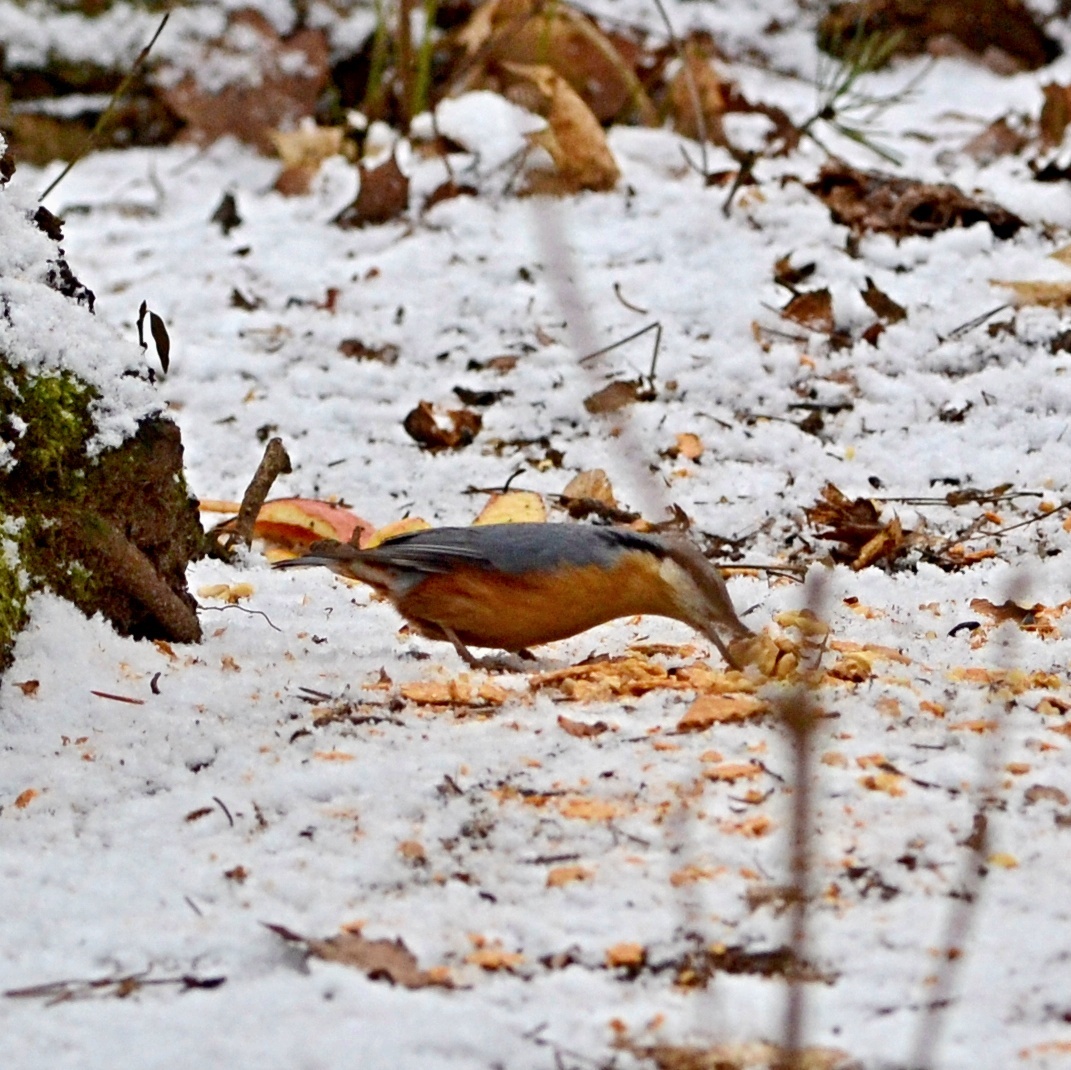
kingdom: Animalia
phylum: Chordata
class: Aves
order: Passeriformes
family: Sittidae
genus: Sitta
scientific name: Sitta europaea
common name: Eurasian nuthatch
